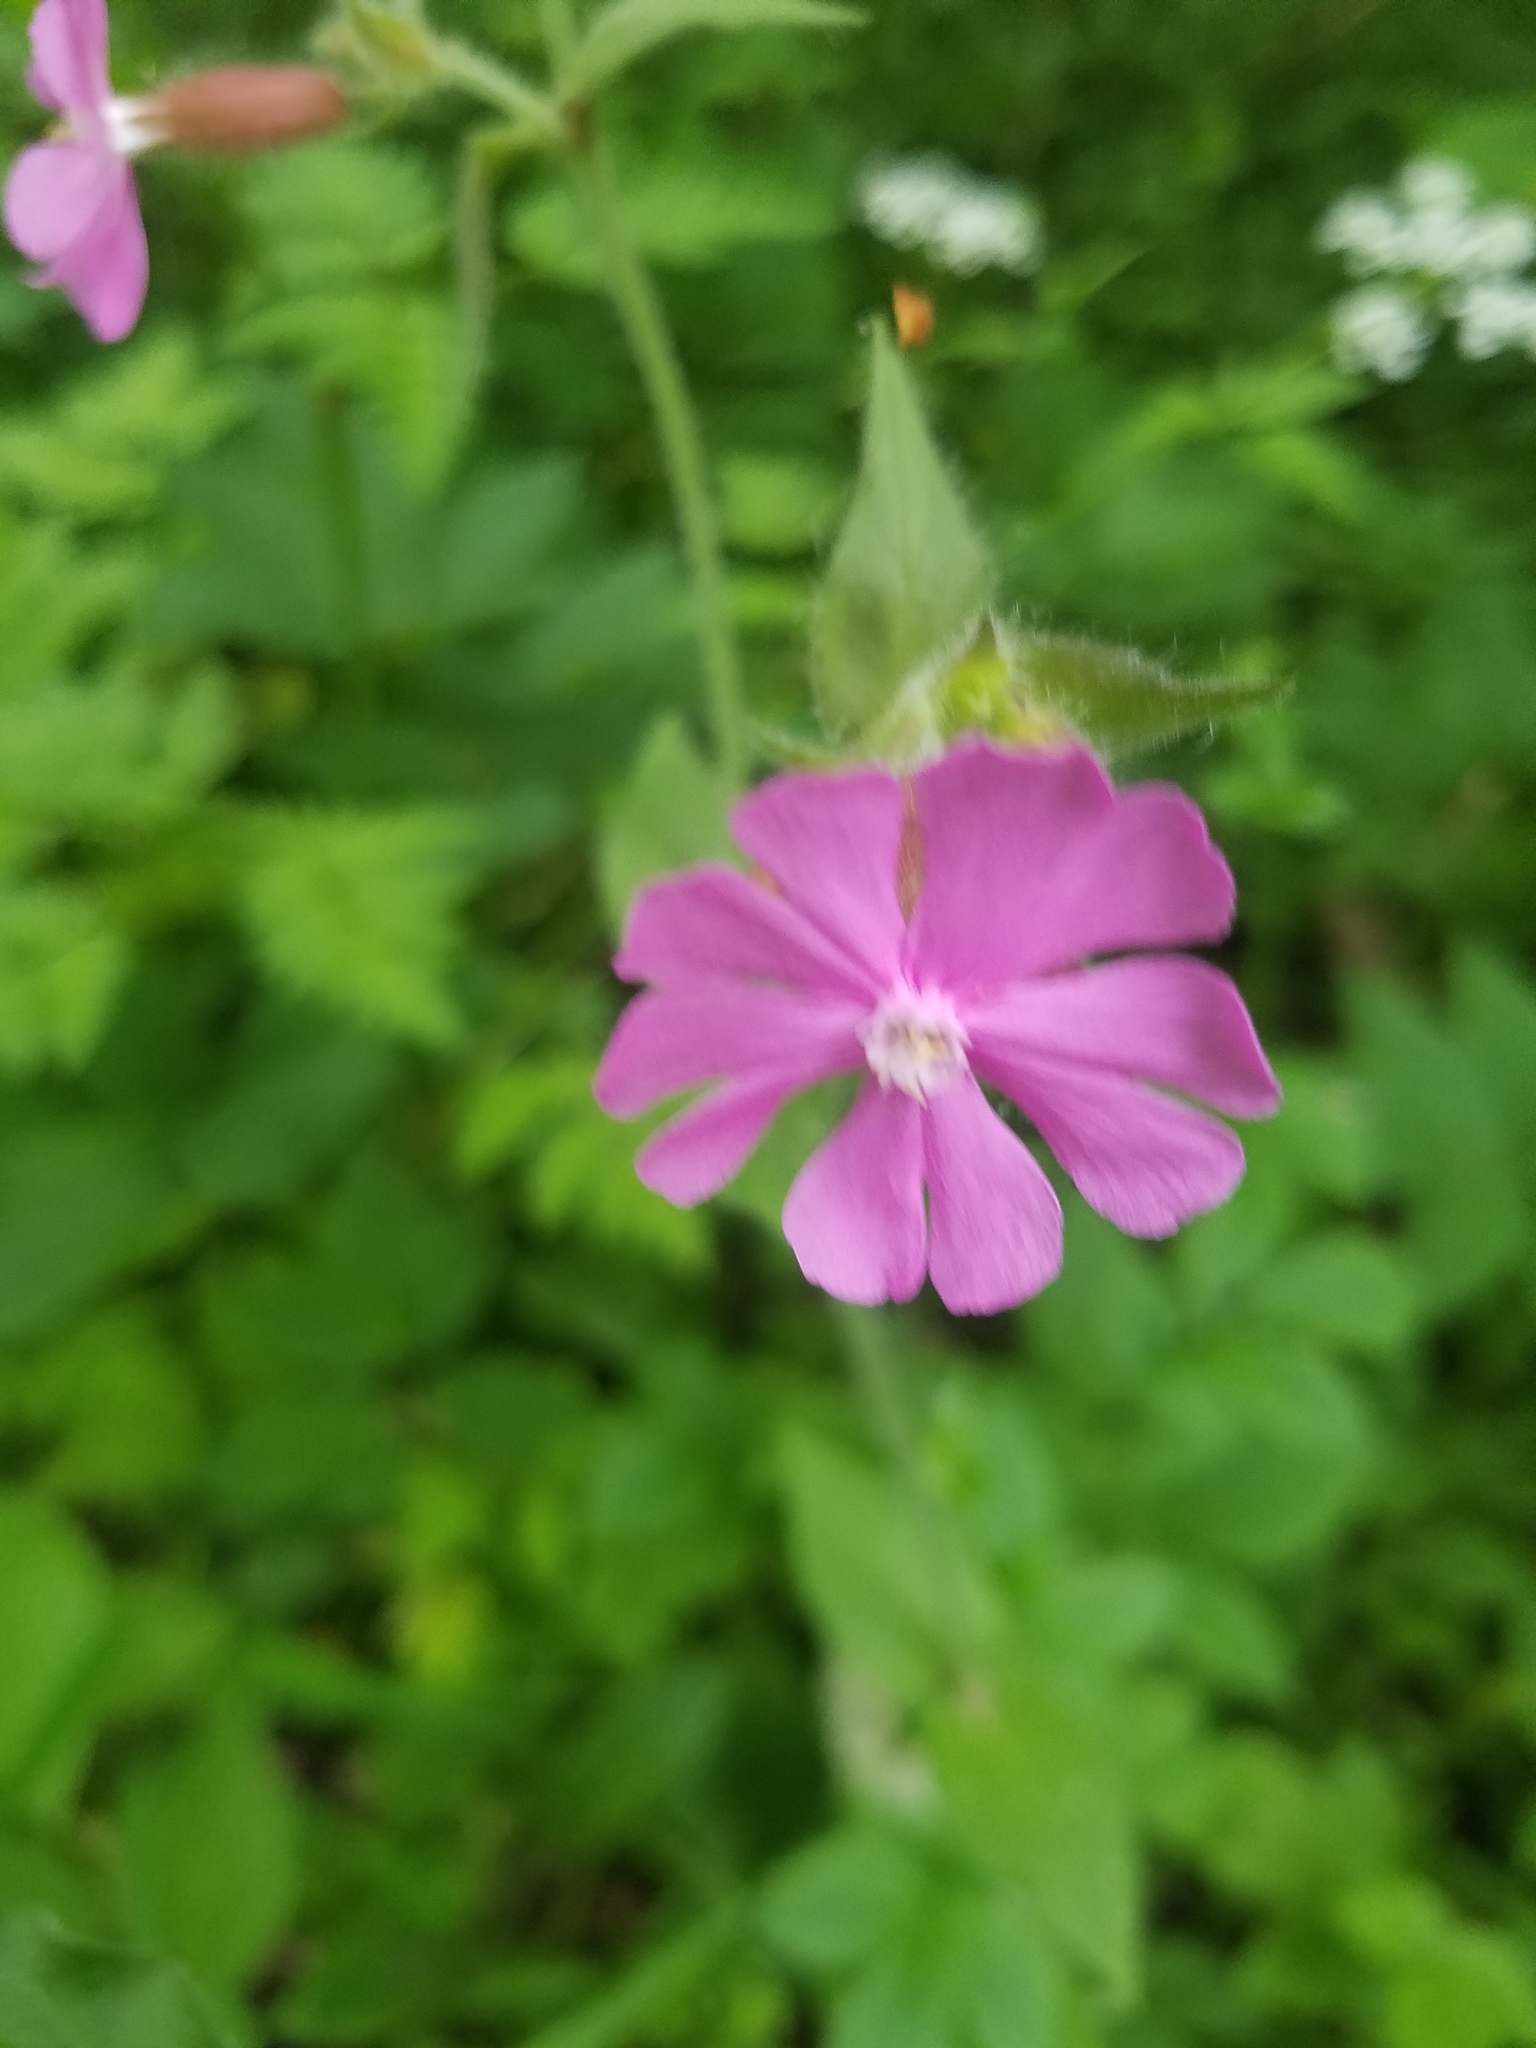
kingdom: Plantae
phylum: Tracheophyta
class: Magnoliopsida
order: Caryophyllales
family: Caryophyllaceae
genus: Silene
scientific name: Silene dioica
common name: Red campion
